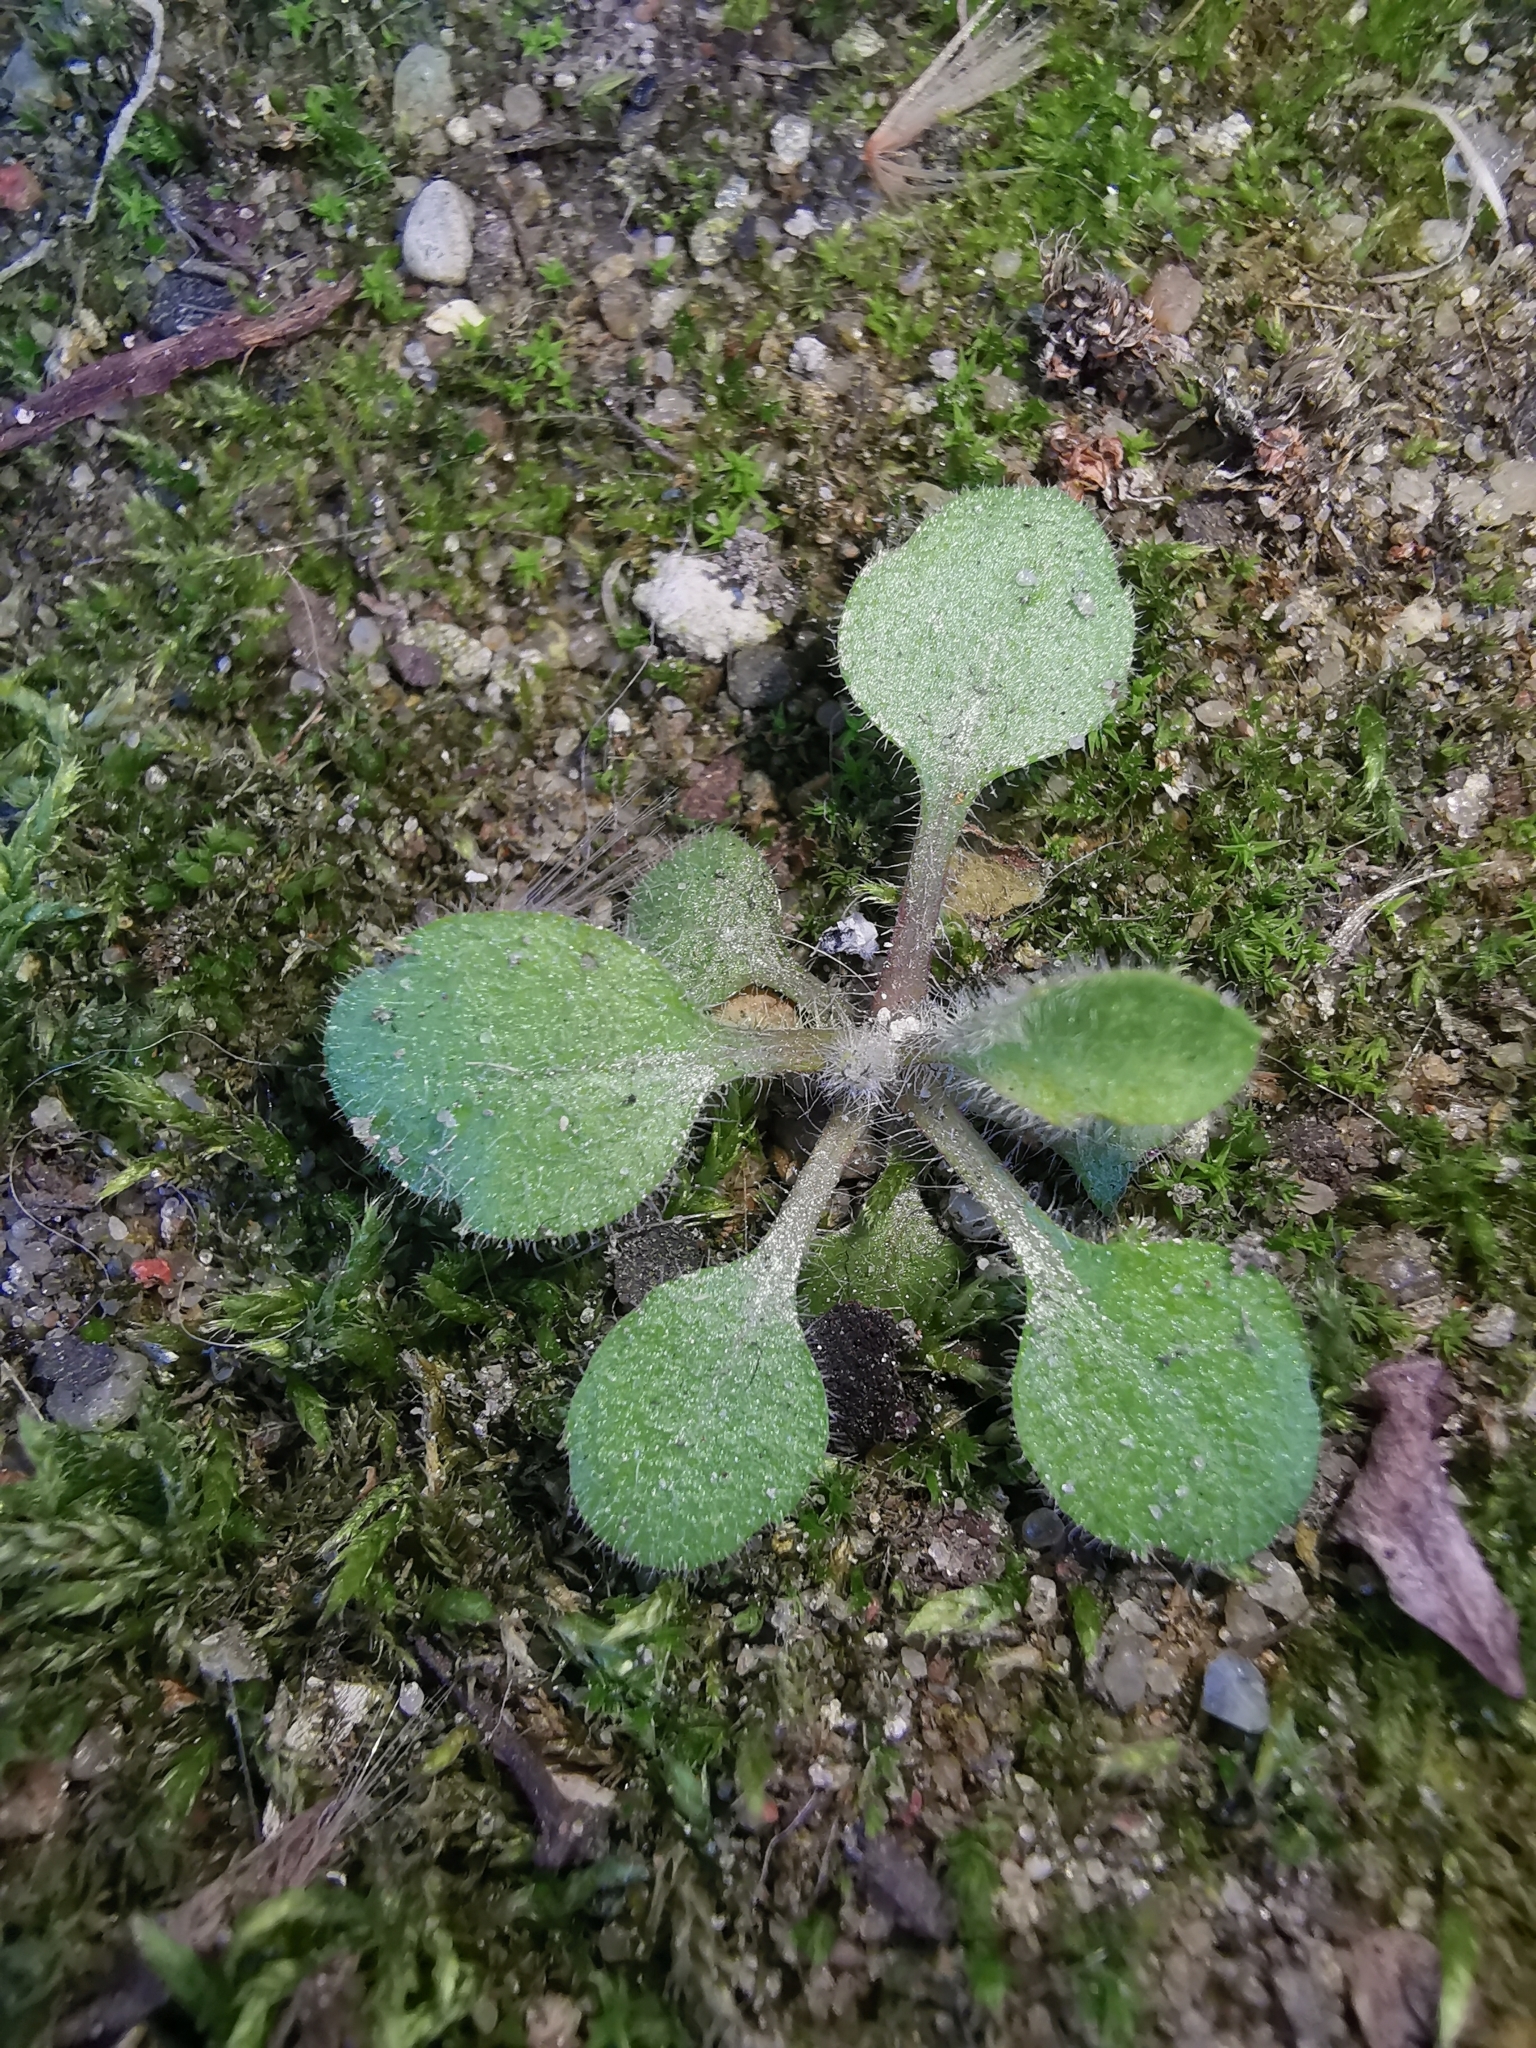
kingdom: Plantae
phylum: Tracheophyta
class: Magnoliopsida
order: Brassicales
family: Brassicaceae
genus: Arabidopsis
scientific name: Arabidopsis thaliana
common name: Thale cress
